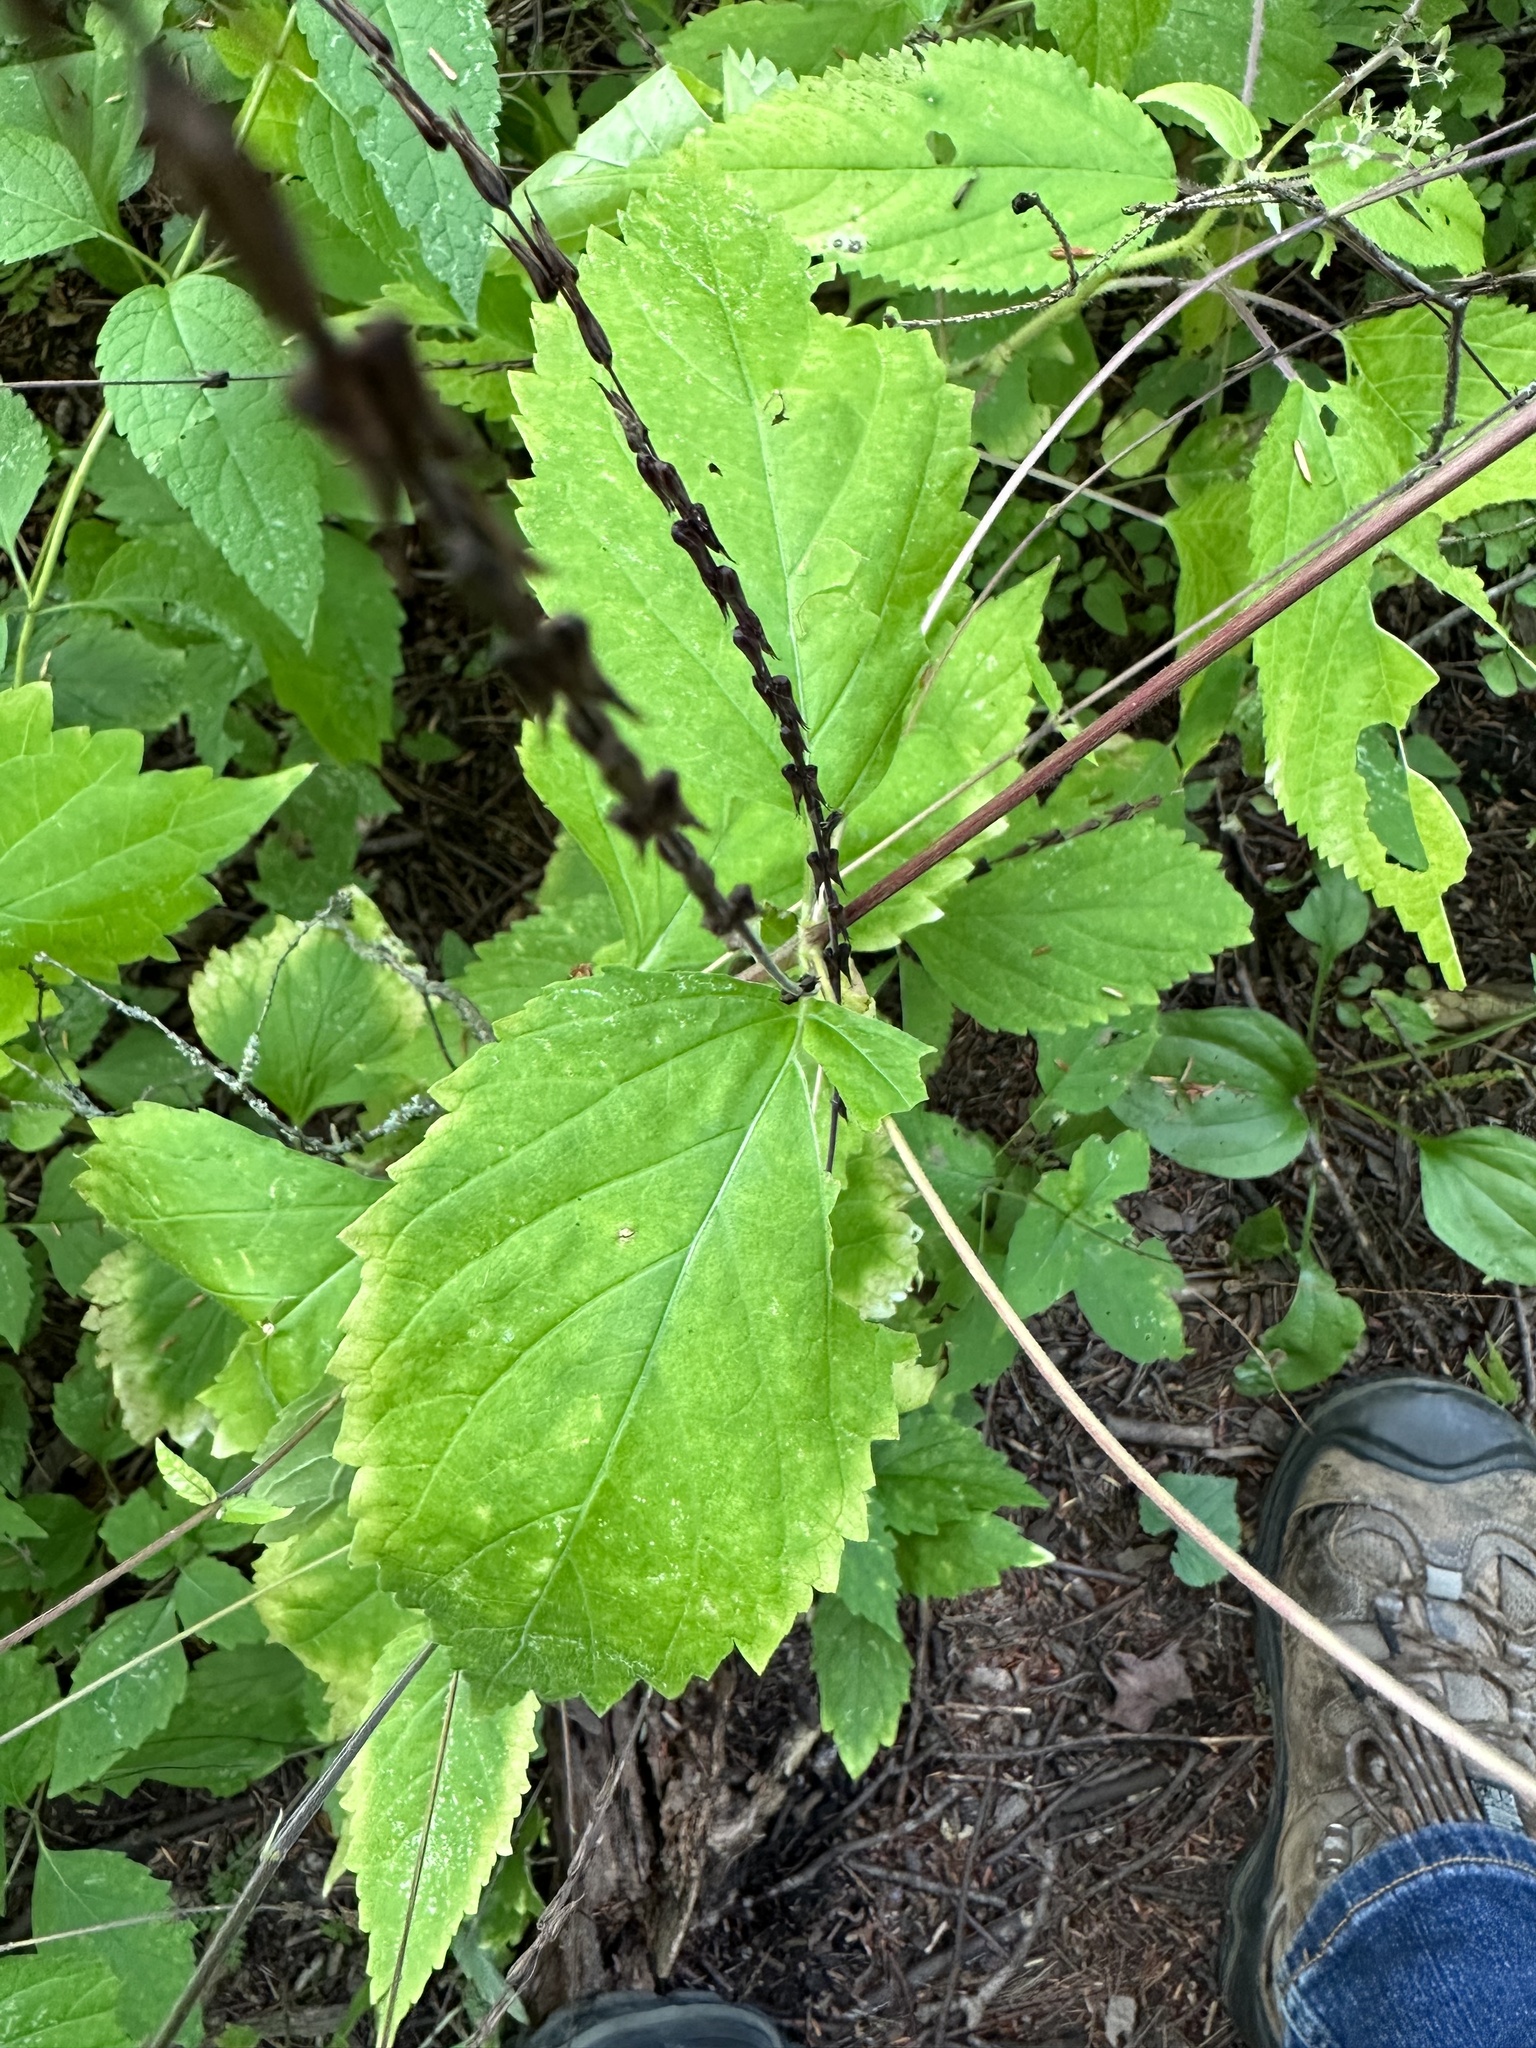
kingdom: Plantae
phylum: Tracheophyta
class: Magnoliopsida
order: Lamiales
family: Phrymaceae
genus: Phryma
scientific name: Phryma leptostachya
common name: American lopseed
